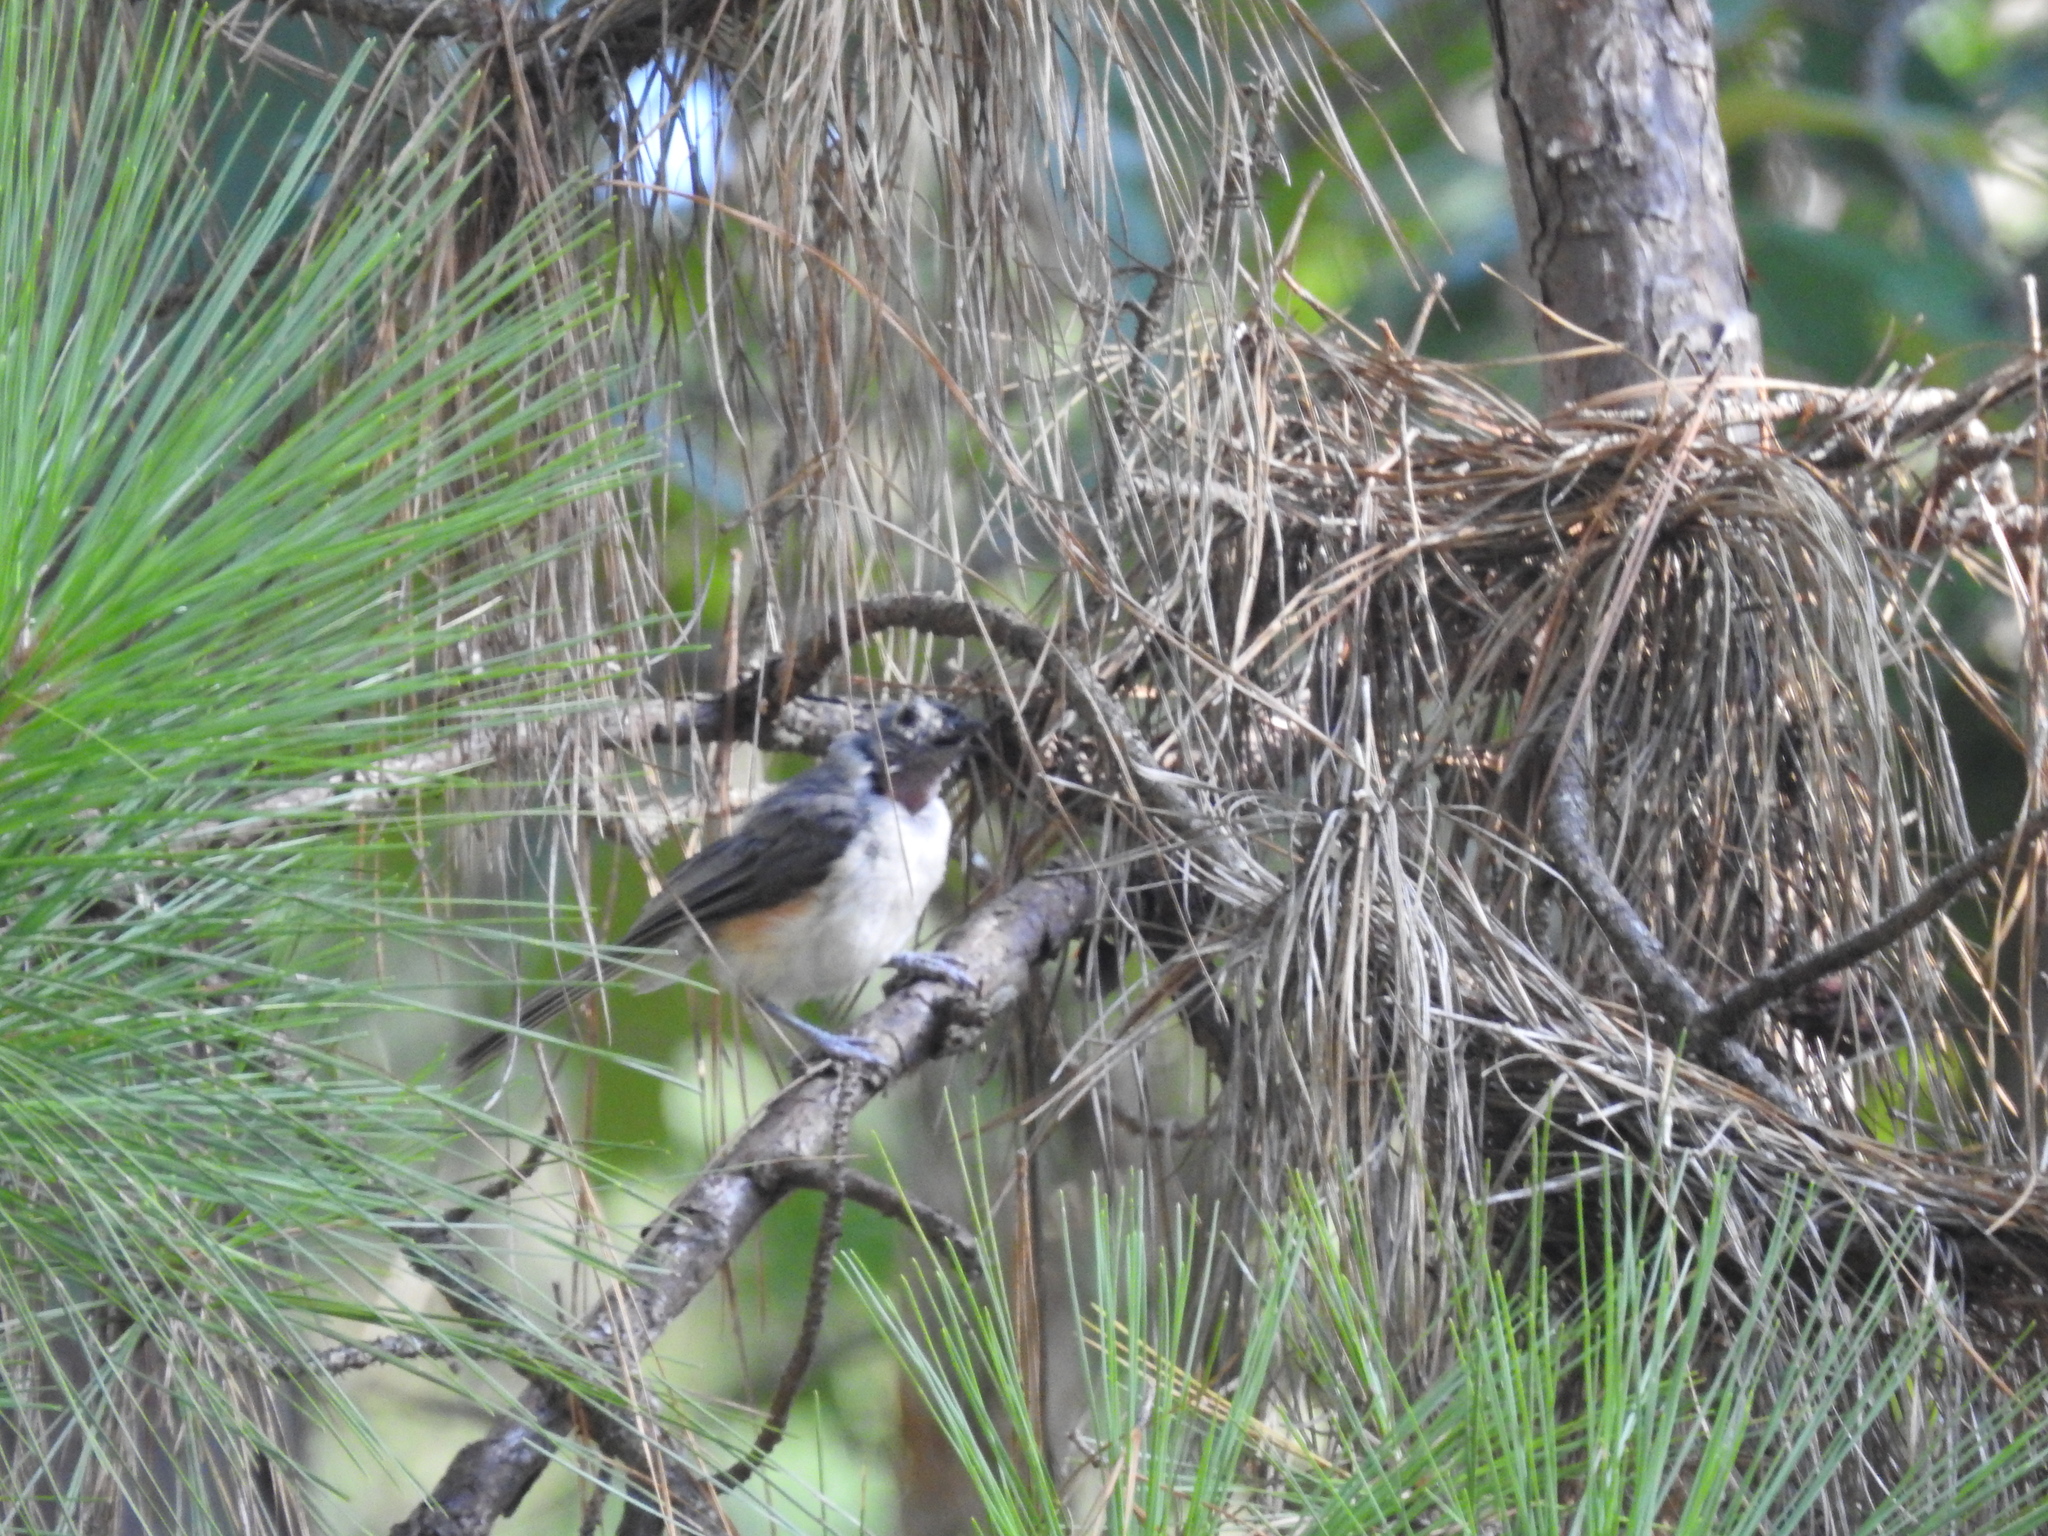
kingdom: Animalia
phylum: Chordata
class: Aves
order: Passeriformes
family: Paridae
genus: Baeolophus
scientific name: Baeolophus bicolor
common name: Tufted titmouse
